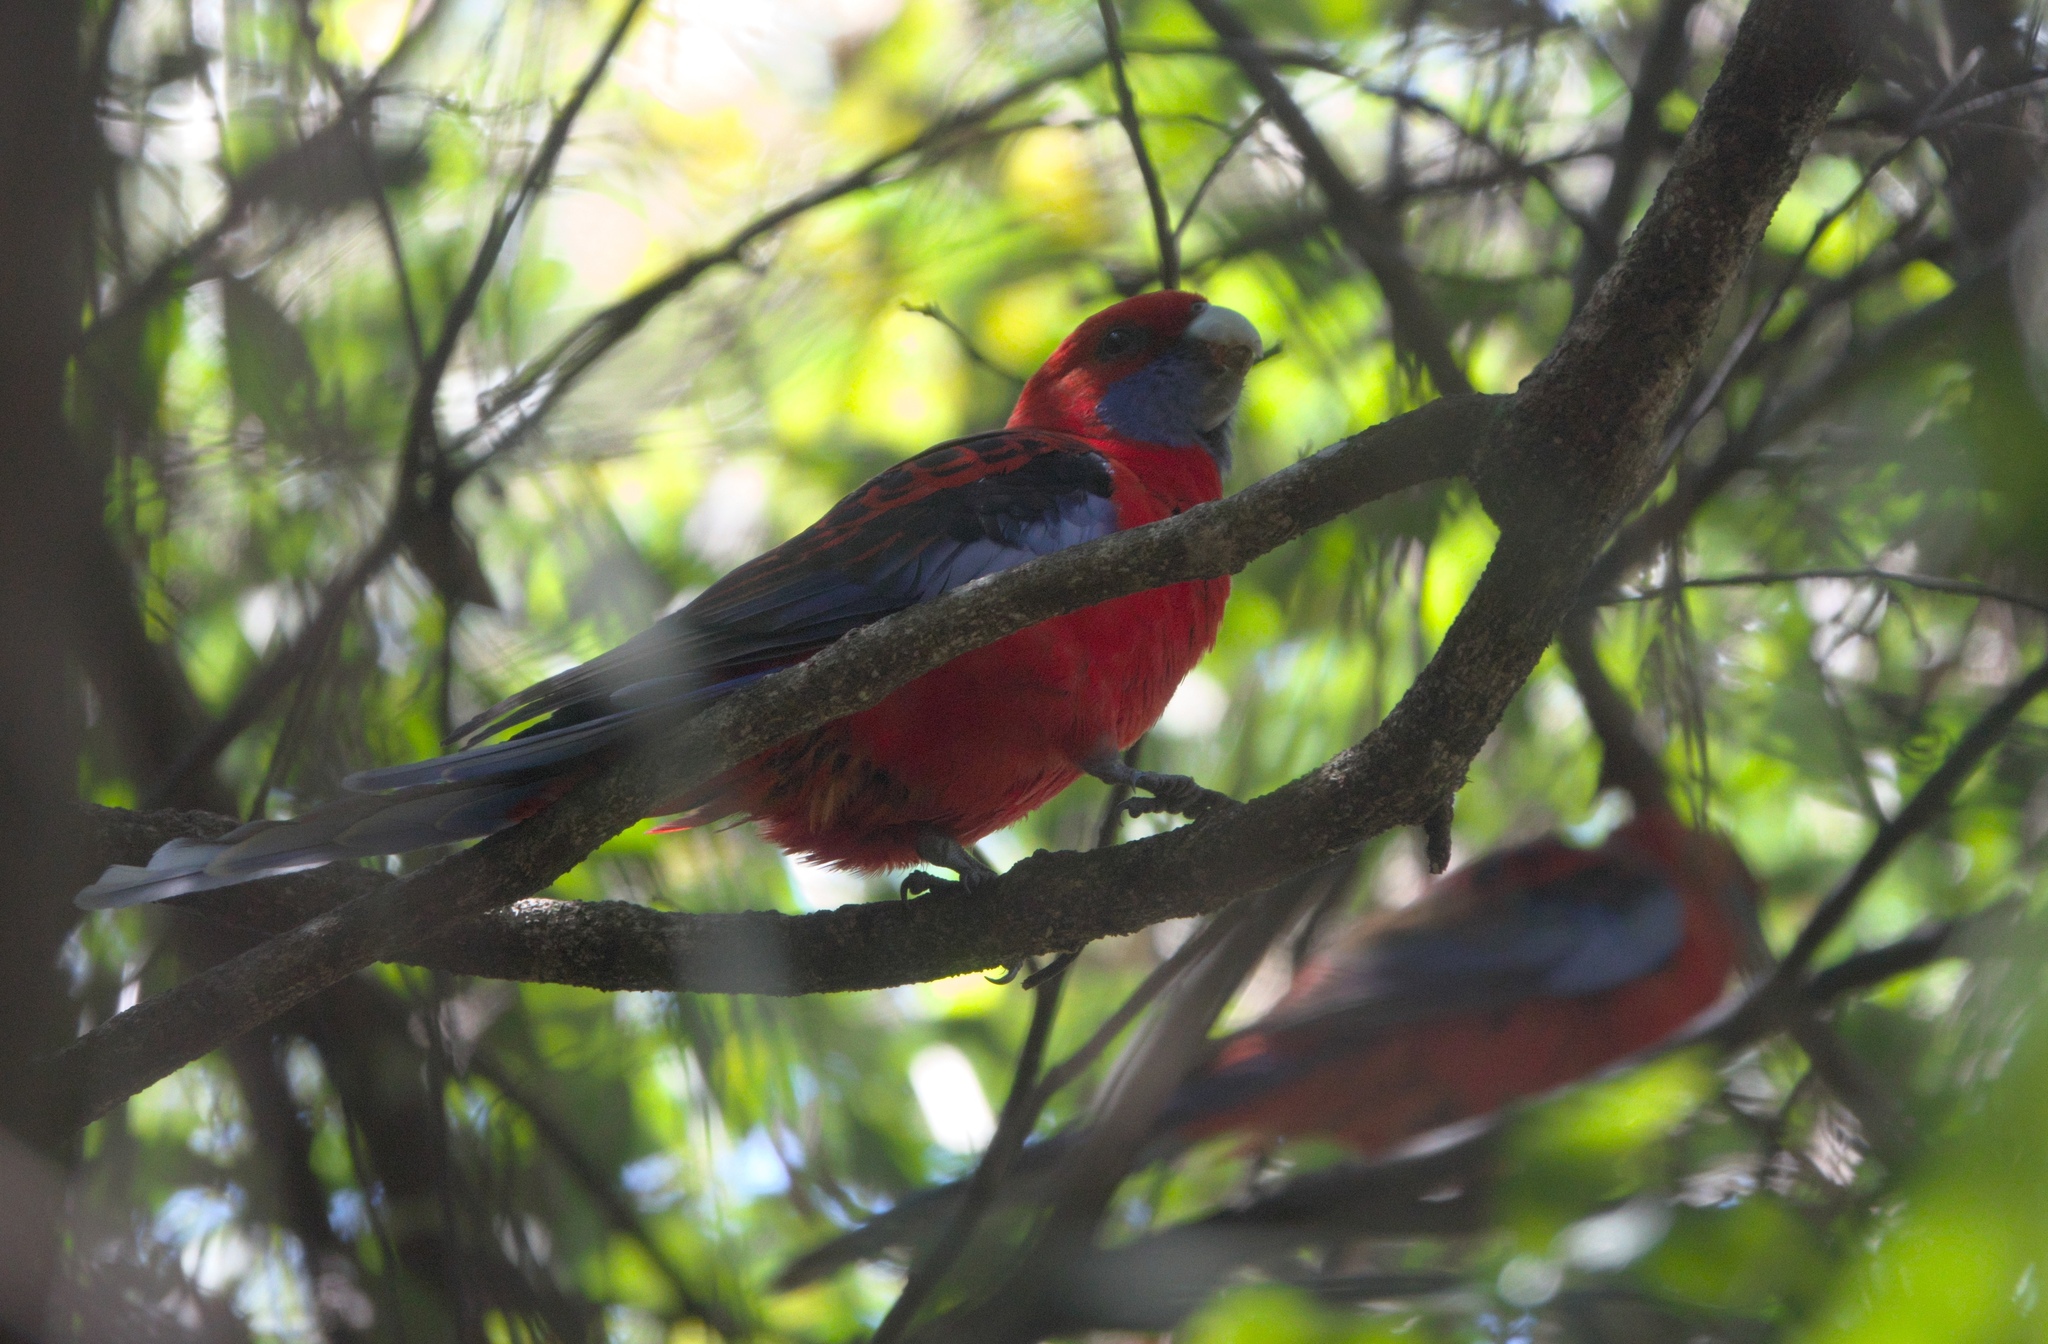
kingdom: Animalia
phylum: Chordata
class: Aves
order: Psittaciformes
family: Psittacidae
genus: Platycercus
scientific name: Platycercus elegans
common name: Crimson rosella
